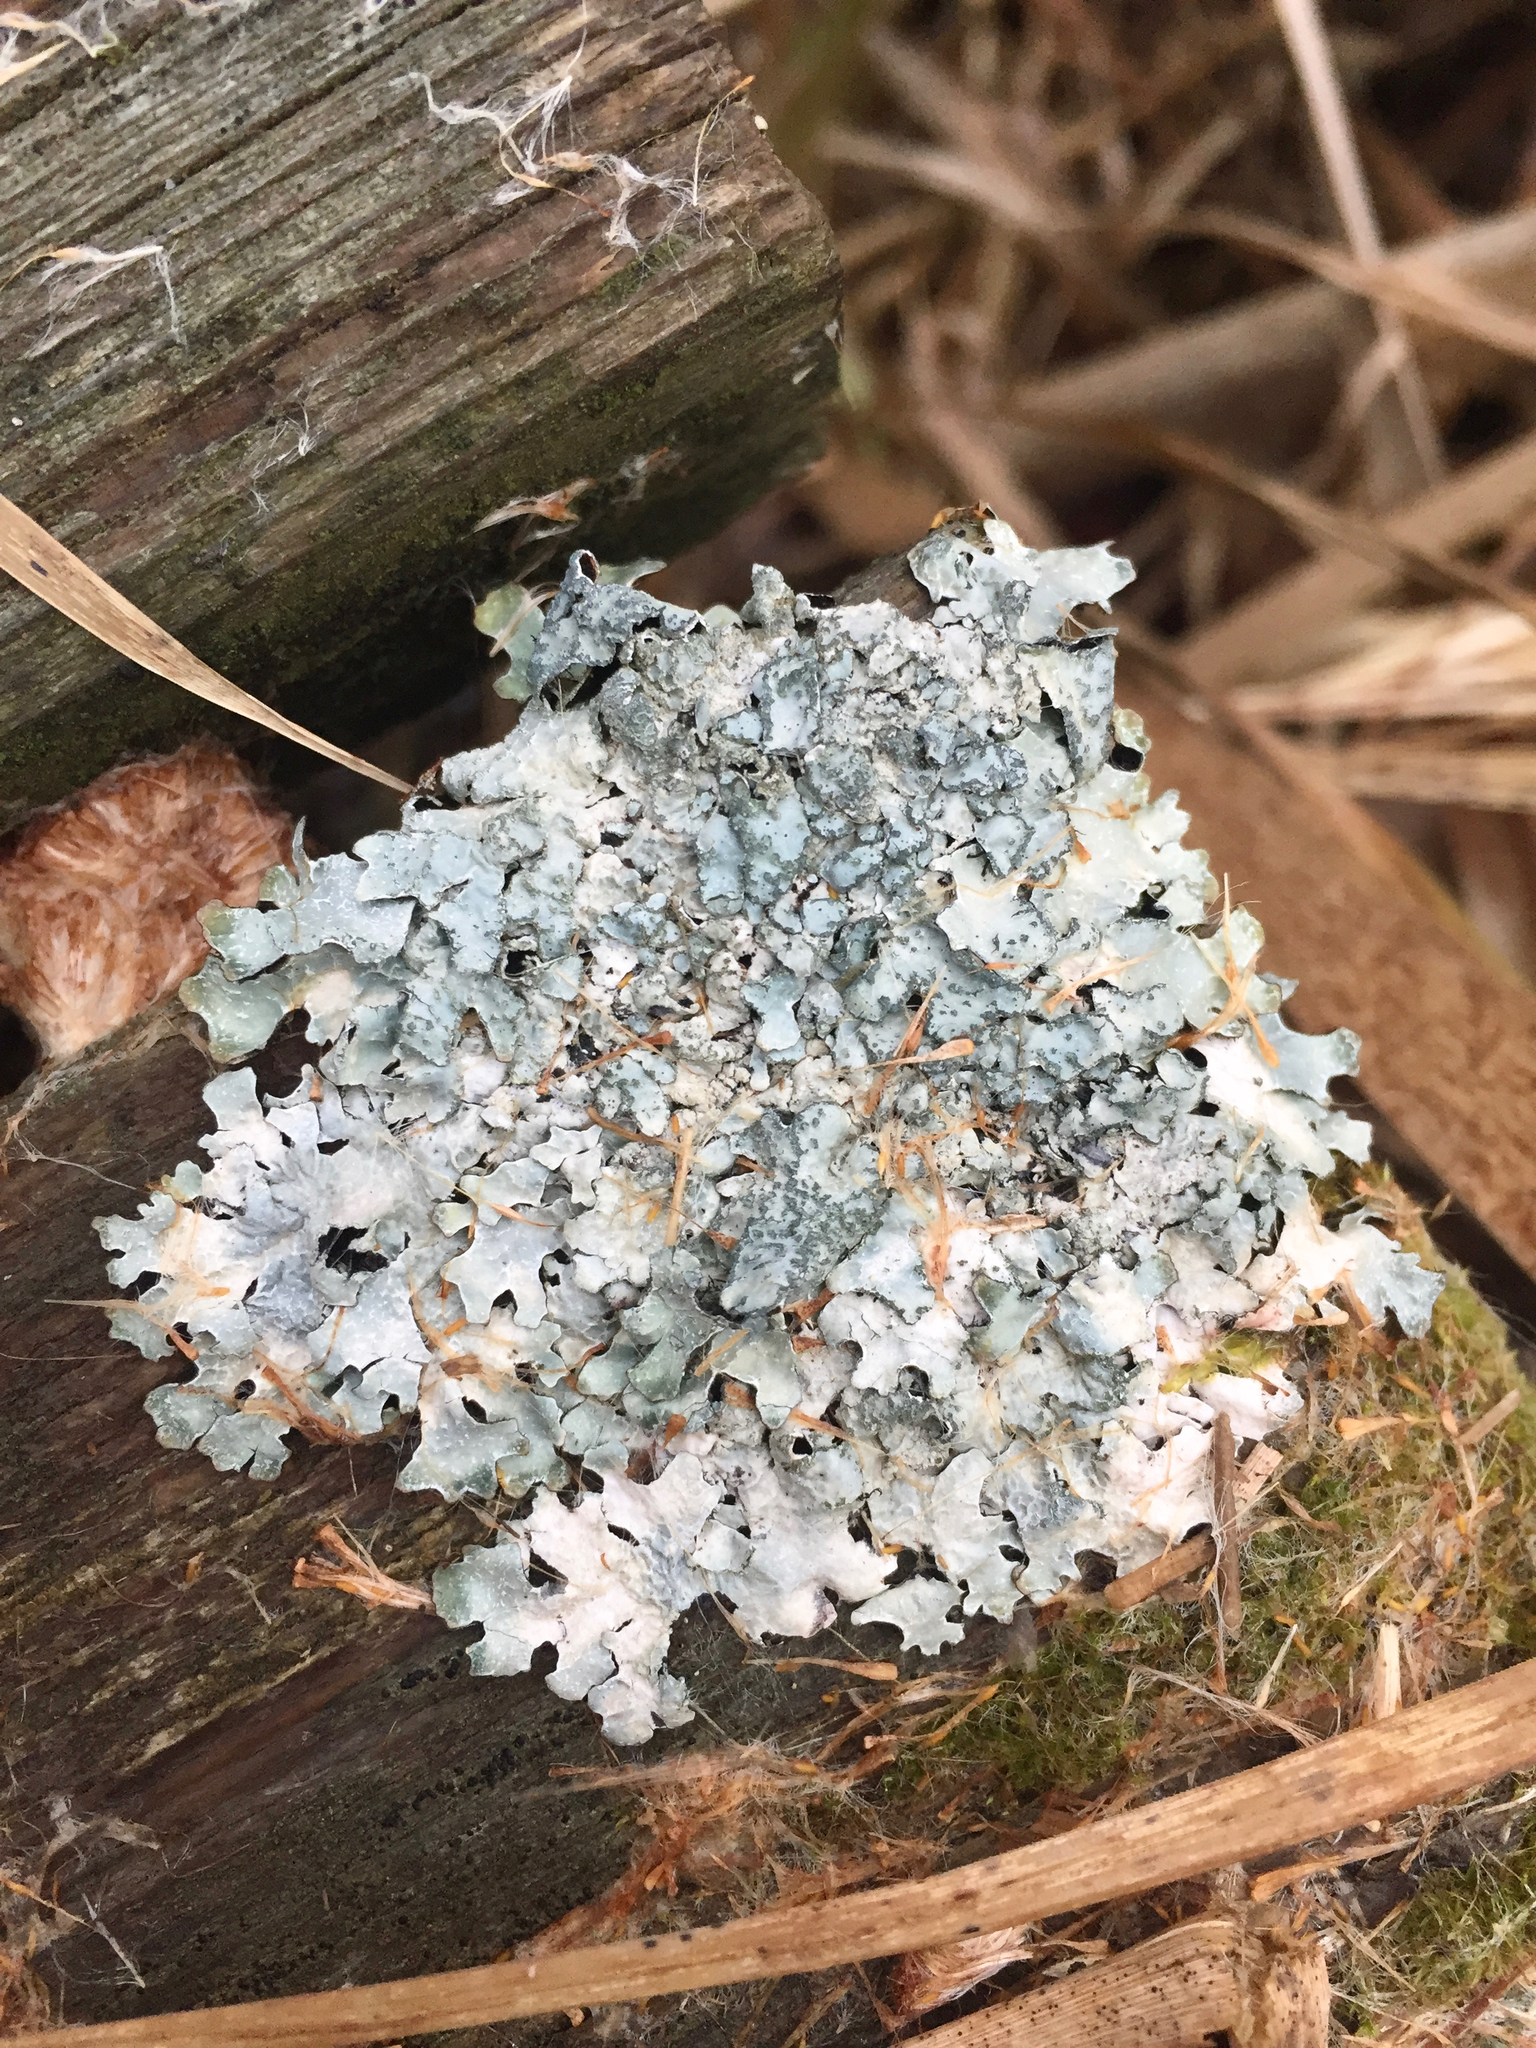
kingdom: Fungi
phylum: Ascomycota
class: Lecanoromycetes
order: Lecanorales
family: Parmeliaceae
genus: Parmelia
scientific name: Parmelia sulcata
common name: Netted shield lichen
